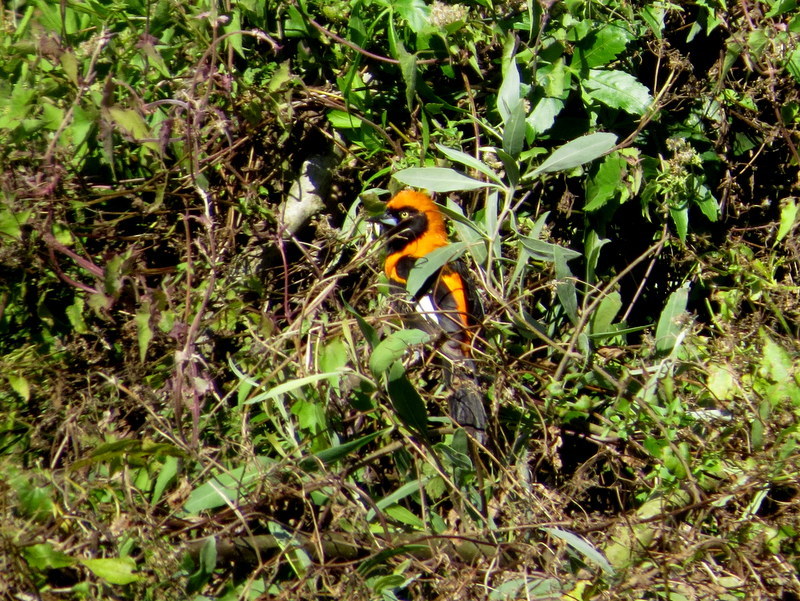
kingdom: Animalia
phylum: Chordata
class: Aves
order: Passeriformes
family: Icteridae
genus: Icterus
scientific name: Icterus icterus
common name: Venezuelan troupial
